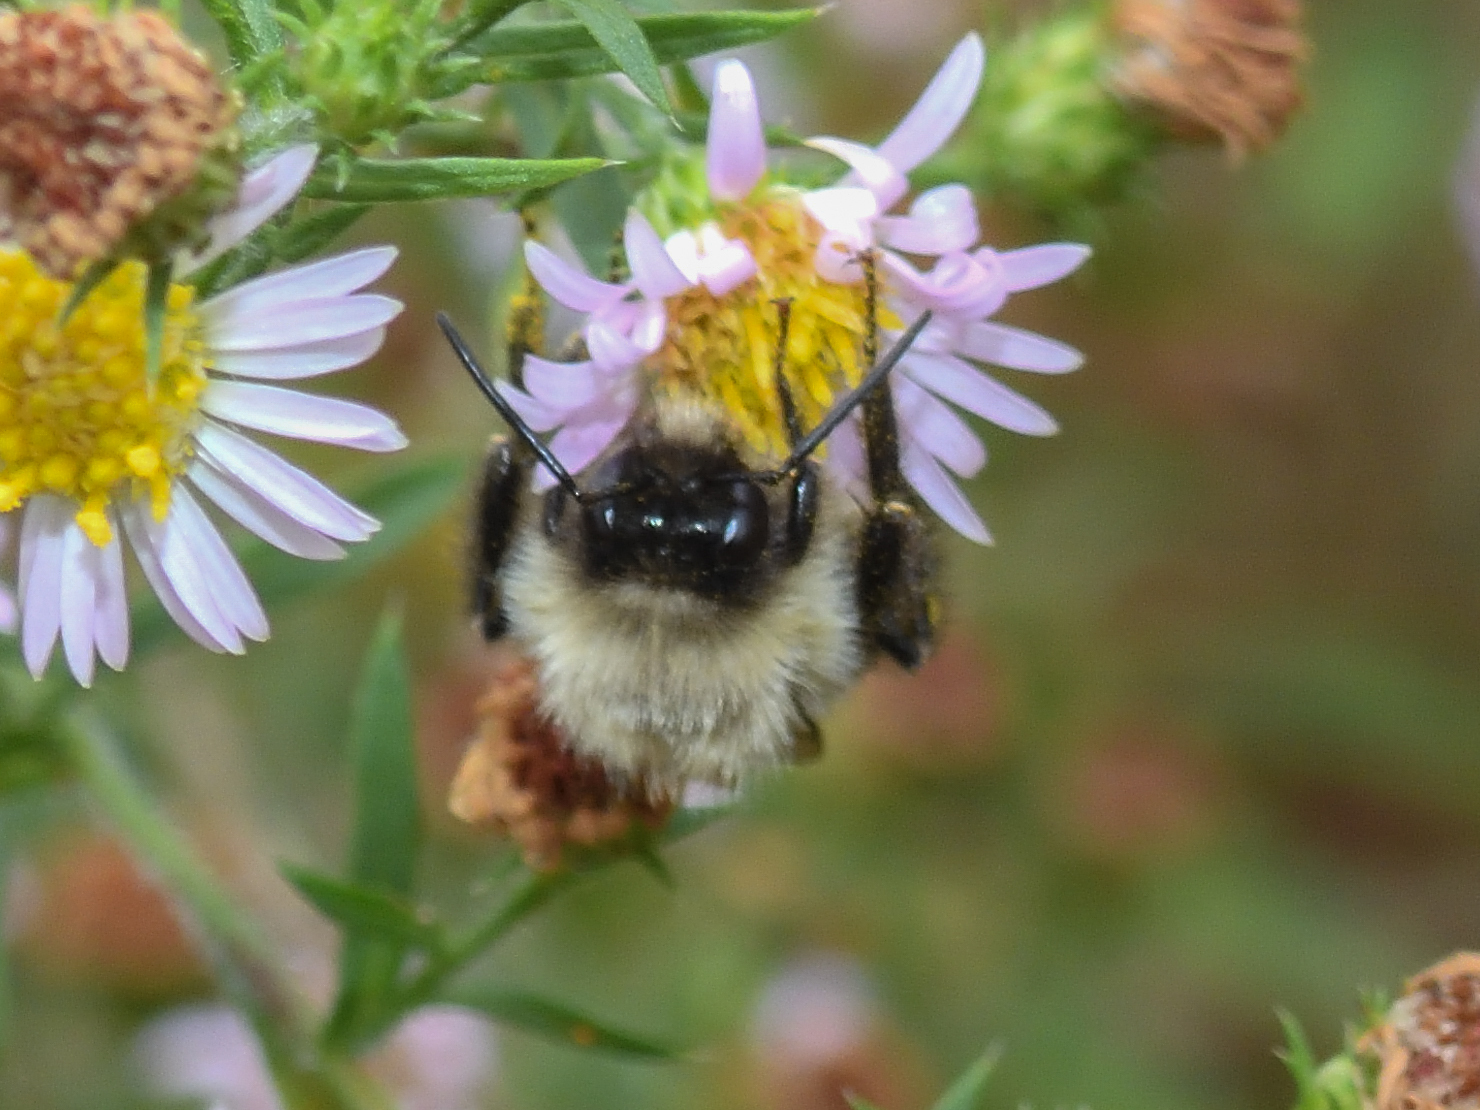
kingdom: Animalia
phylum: Arthropoda
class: Insecta
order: Hymenoptera
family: Apidae
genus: Bombus
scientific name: Bombus impatiens
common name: Common eastern bumble bee
